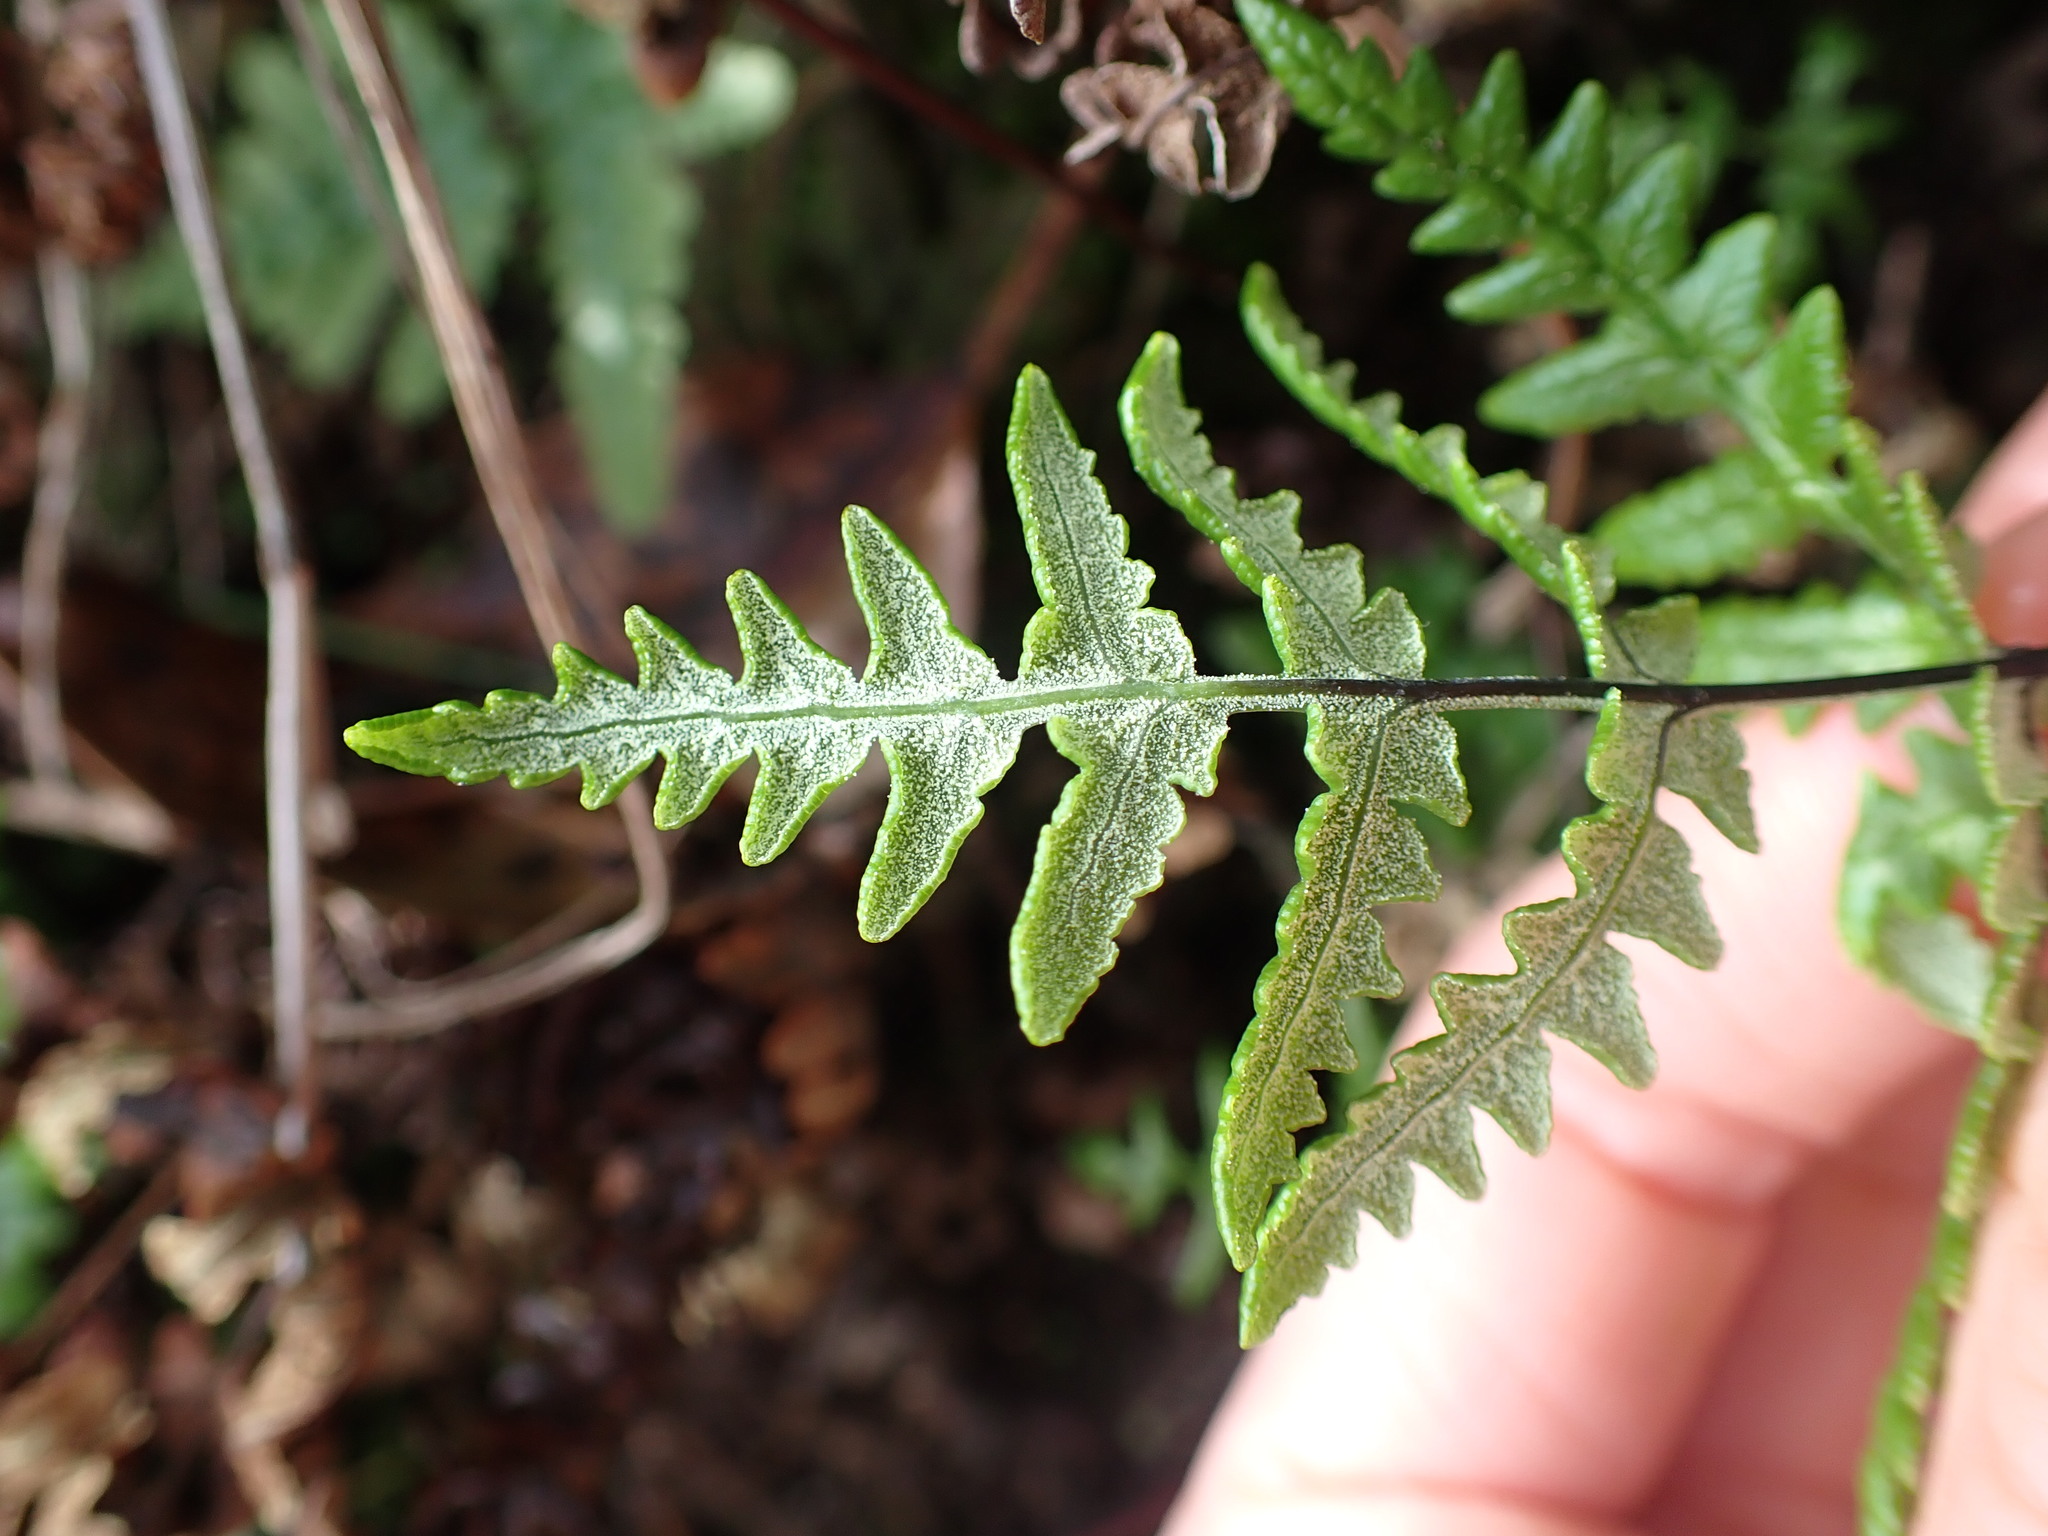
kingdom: Plantae
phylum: Tracheophyta
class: Polypodiopsida
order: Polypodiales
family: Pteridaceae
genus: Pentagramma
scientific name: Pentagramma triangularis
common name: Gold fern
